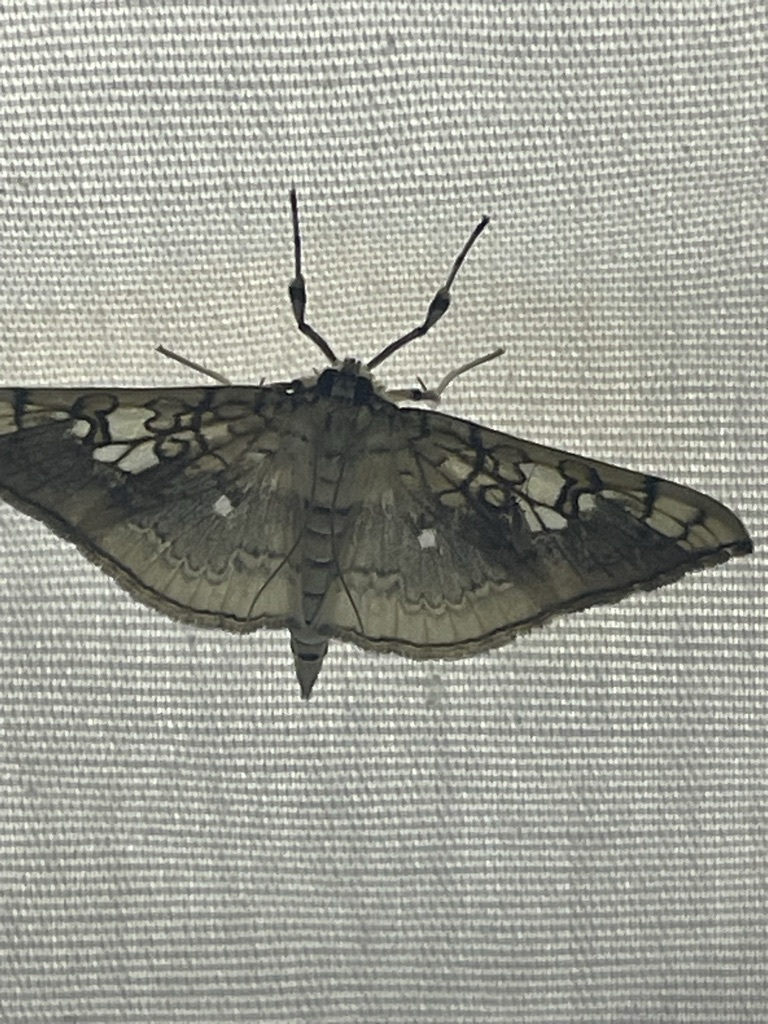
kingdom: Animalia
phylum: Arthropoda
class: Insecta
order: Lepidoptera
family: Crambidae
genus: Pantographa
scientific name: Pantographa limata
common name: Basswood leafroller moth
